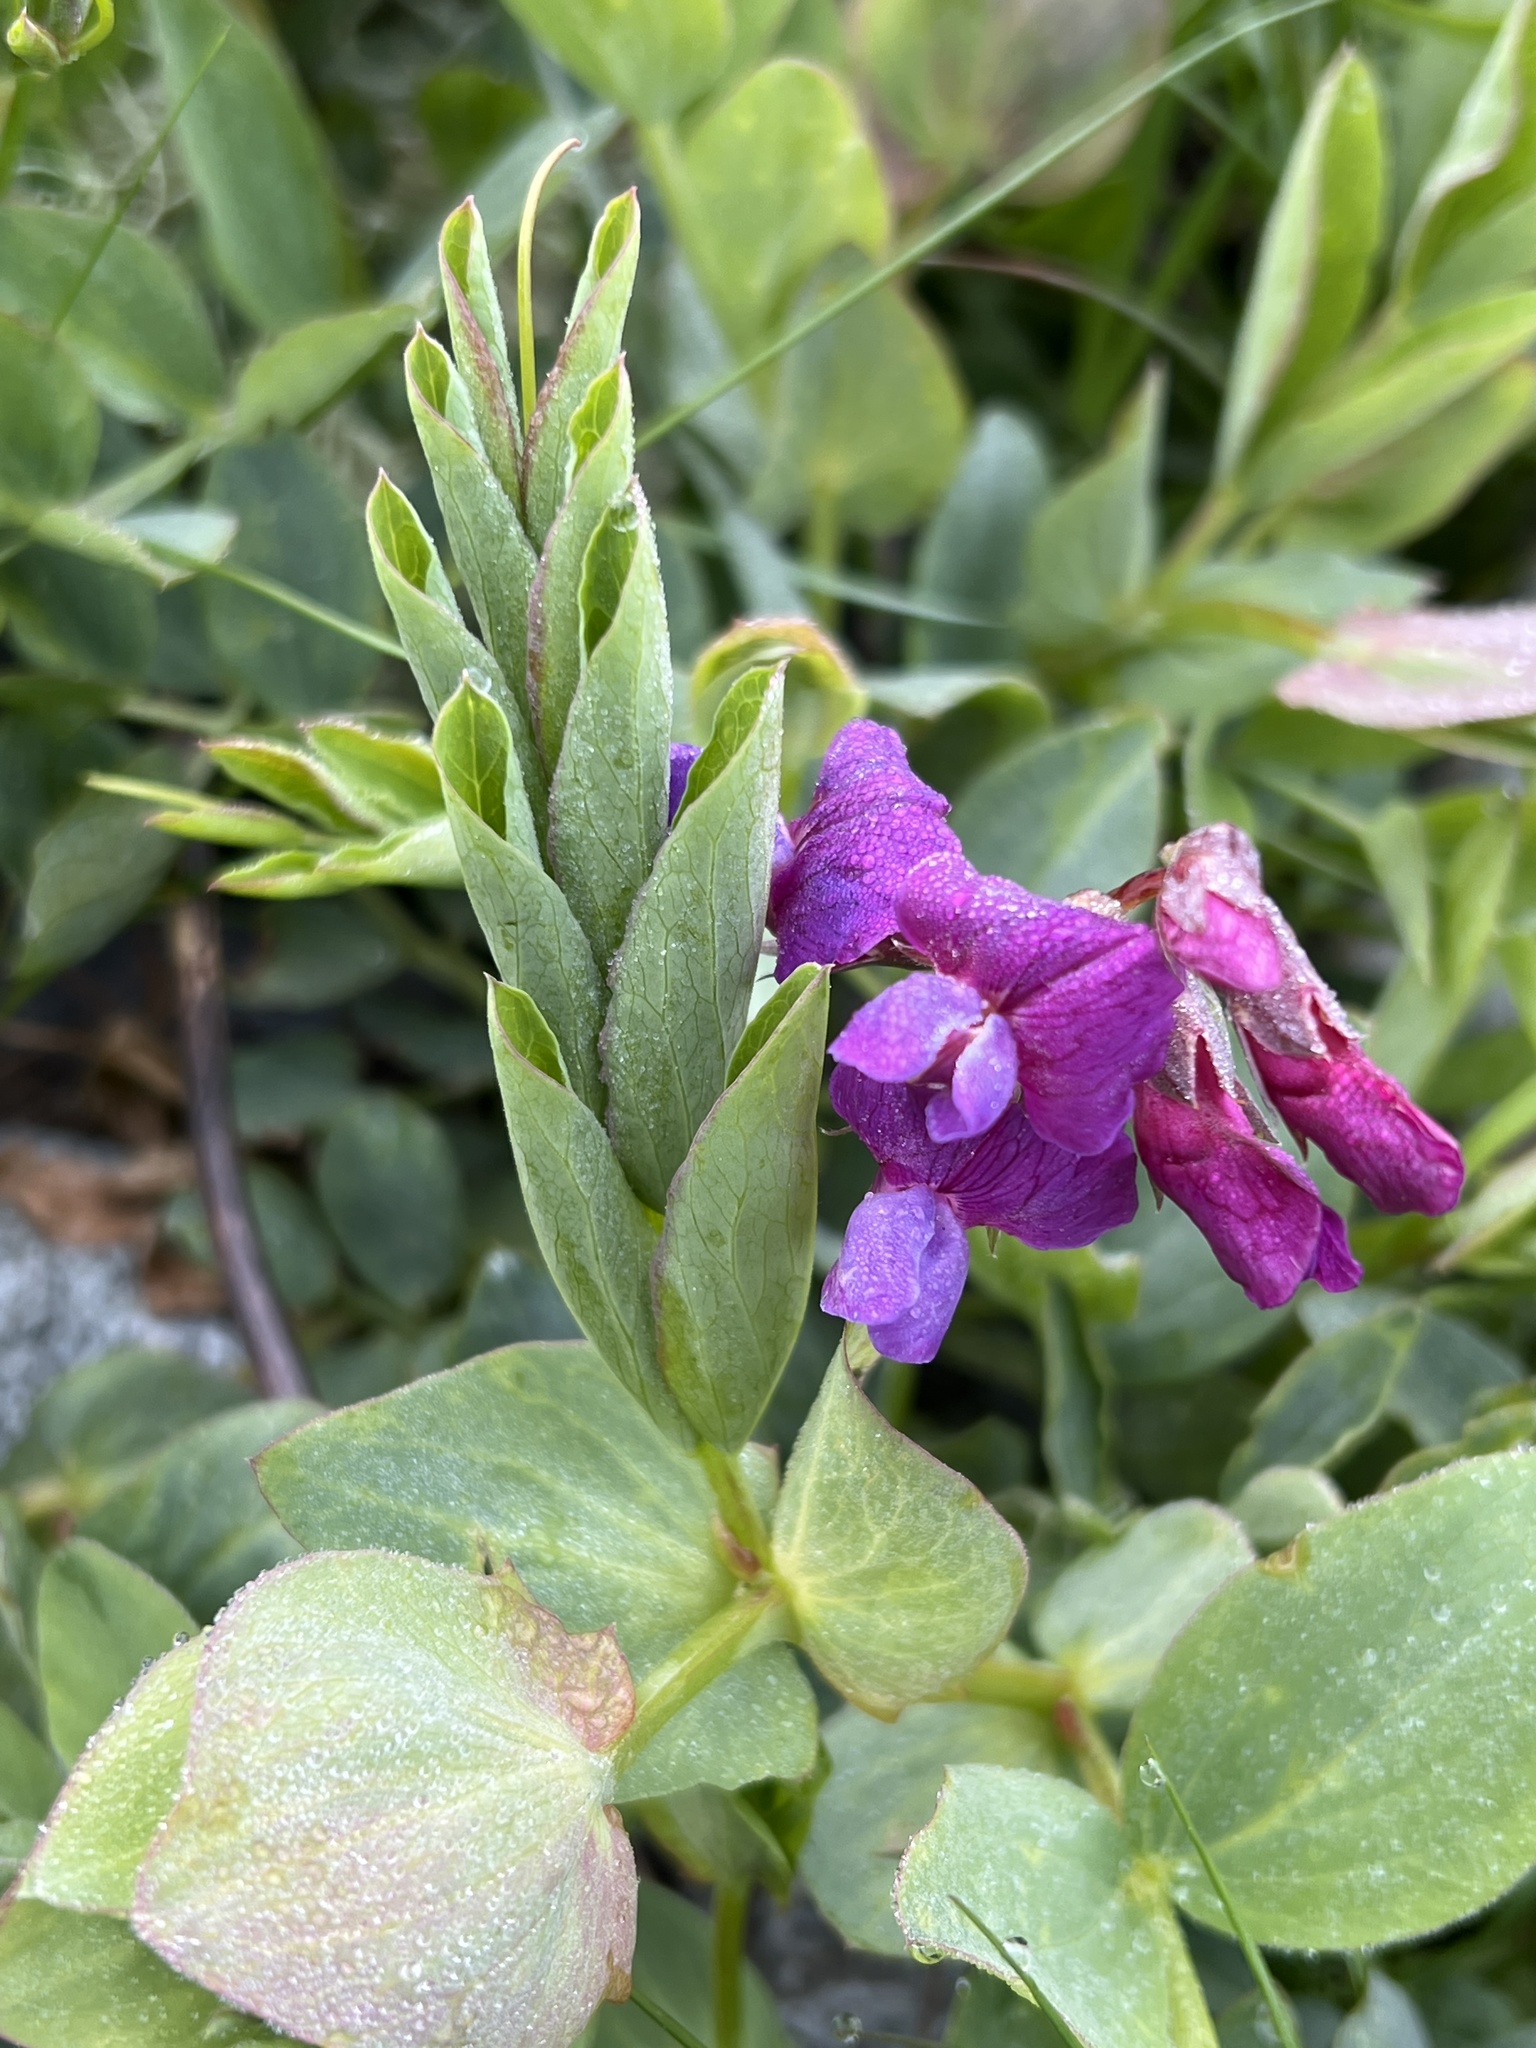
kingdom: Plantae
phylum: Tracheophyta
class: Magnoliopsida
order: Fabales
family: Fabaceae
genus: Lathyrus
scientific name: Lathyrus japonicus
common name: Sea pea
